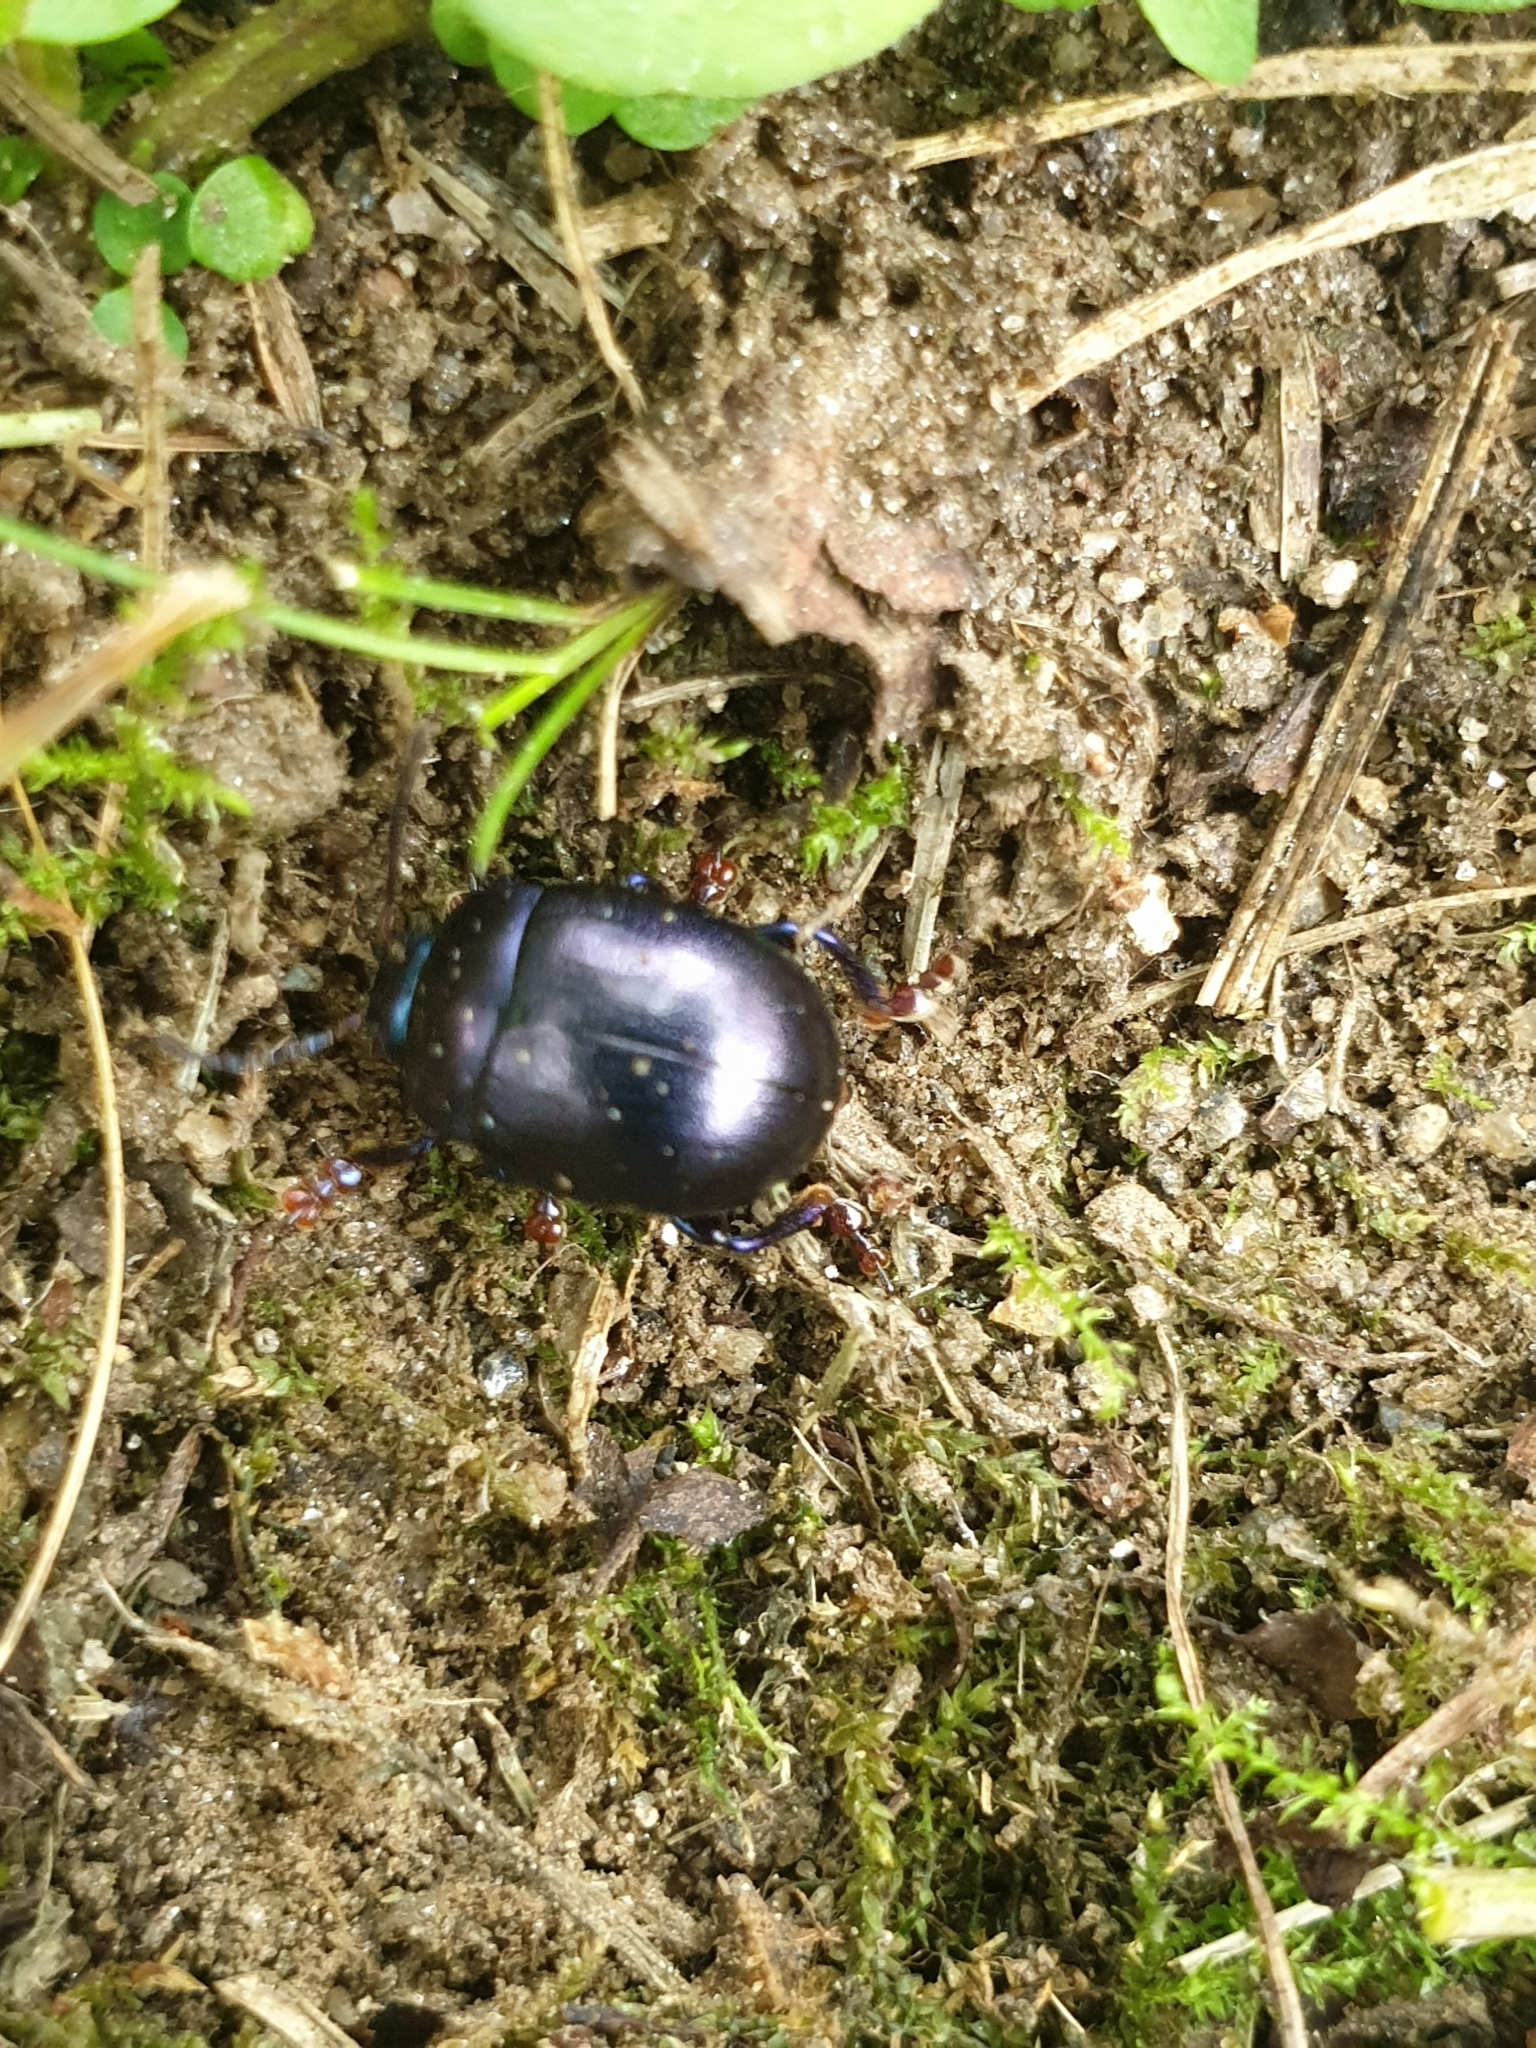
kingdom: Animalia
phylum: Arthropoda
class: Insecta
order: Coleoptera
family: Chrysomelidae
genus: Chrysolina
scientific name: Chrysolina sturmi
